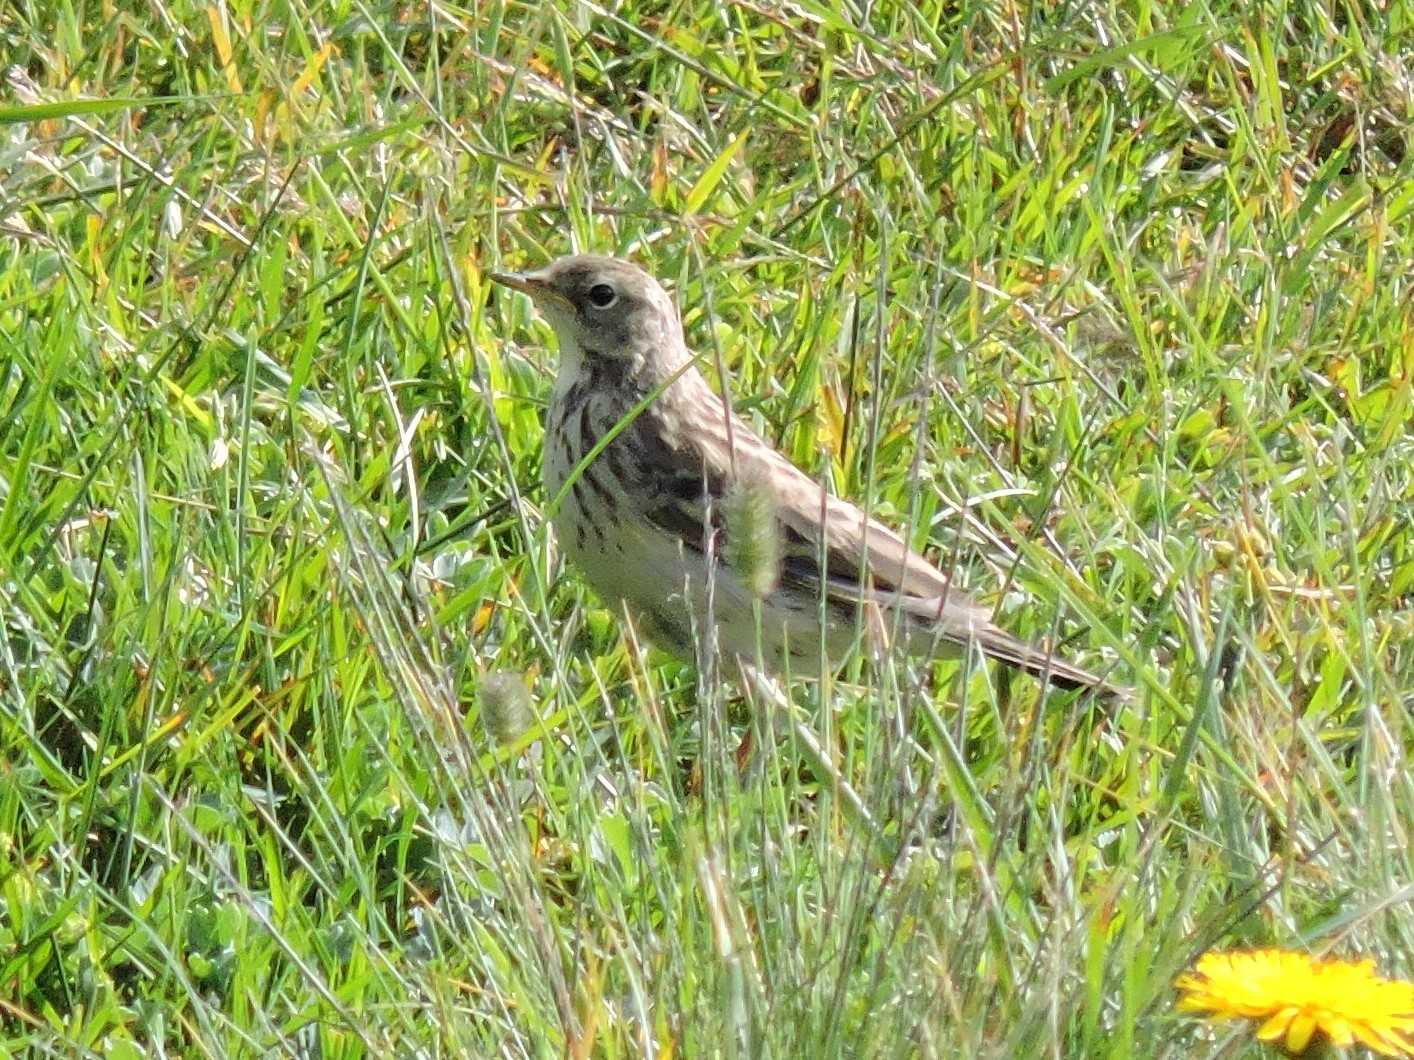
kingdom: Animalia
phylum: Chordata
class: Aves
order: Passeriformes
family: Motacillidae
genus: Anthus
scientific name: Anthus spinoletta
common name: Water pipit
